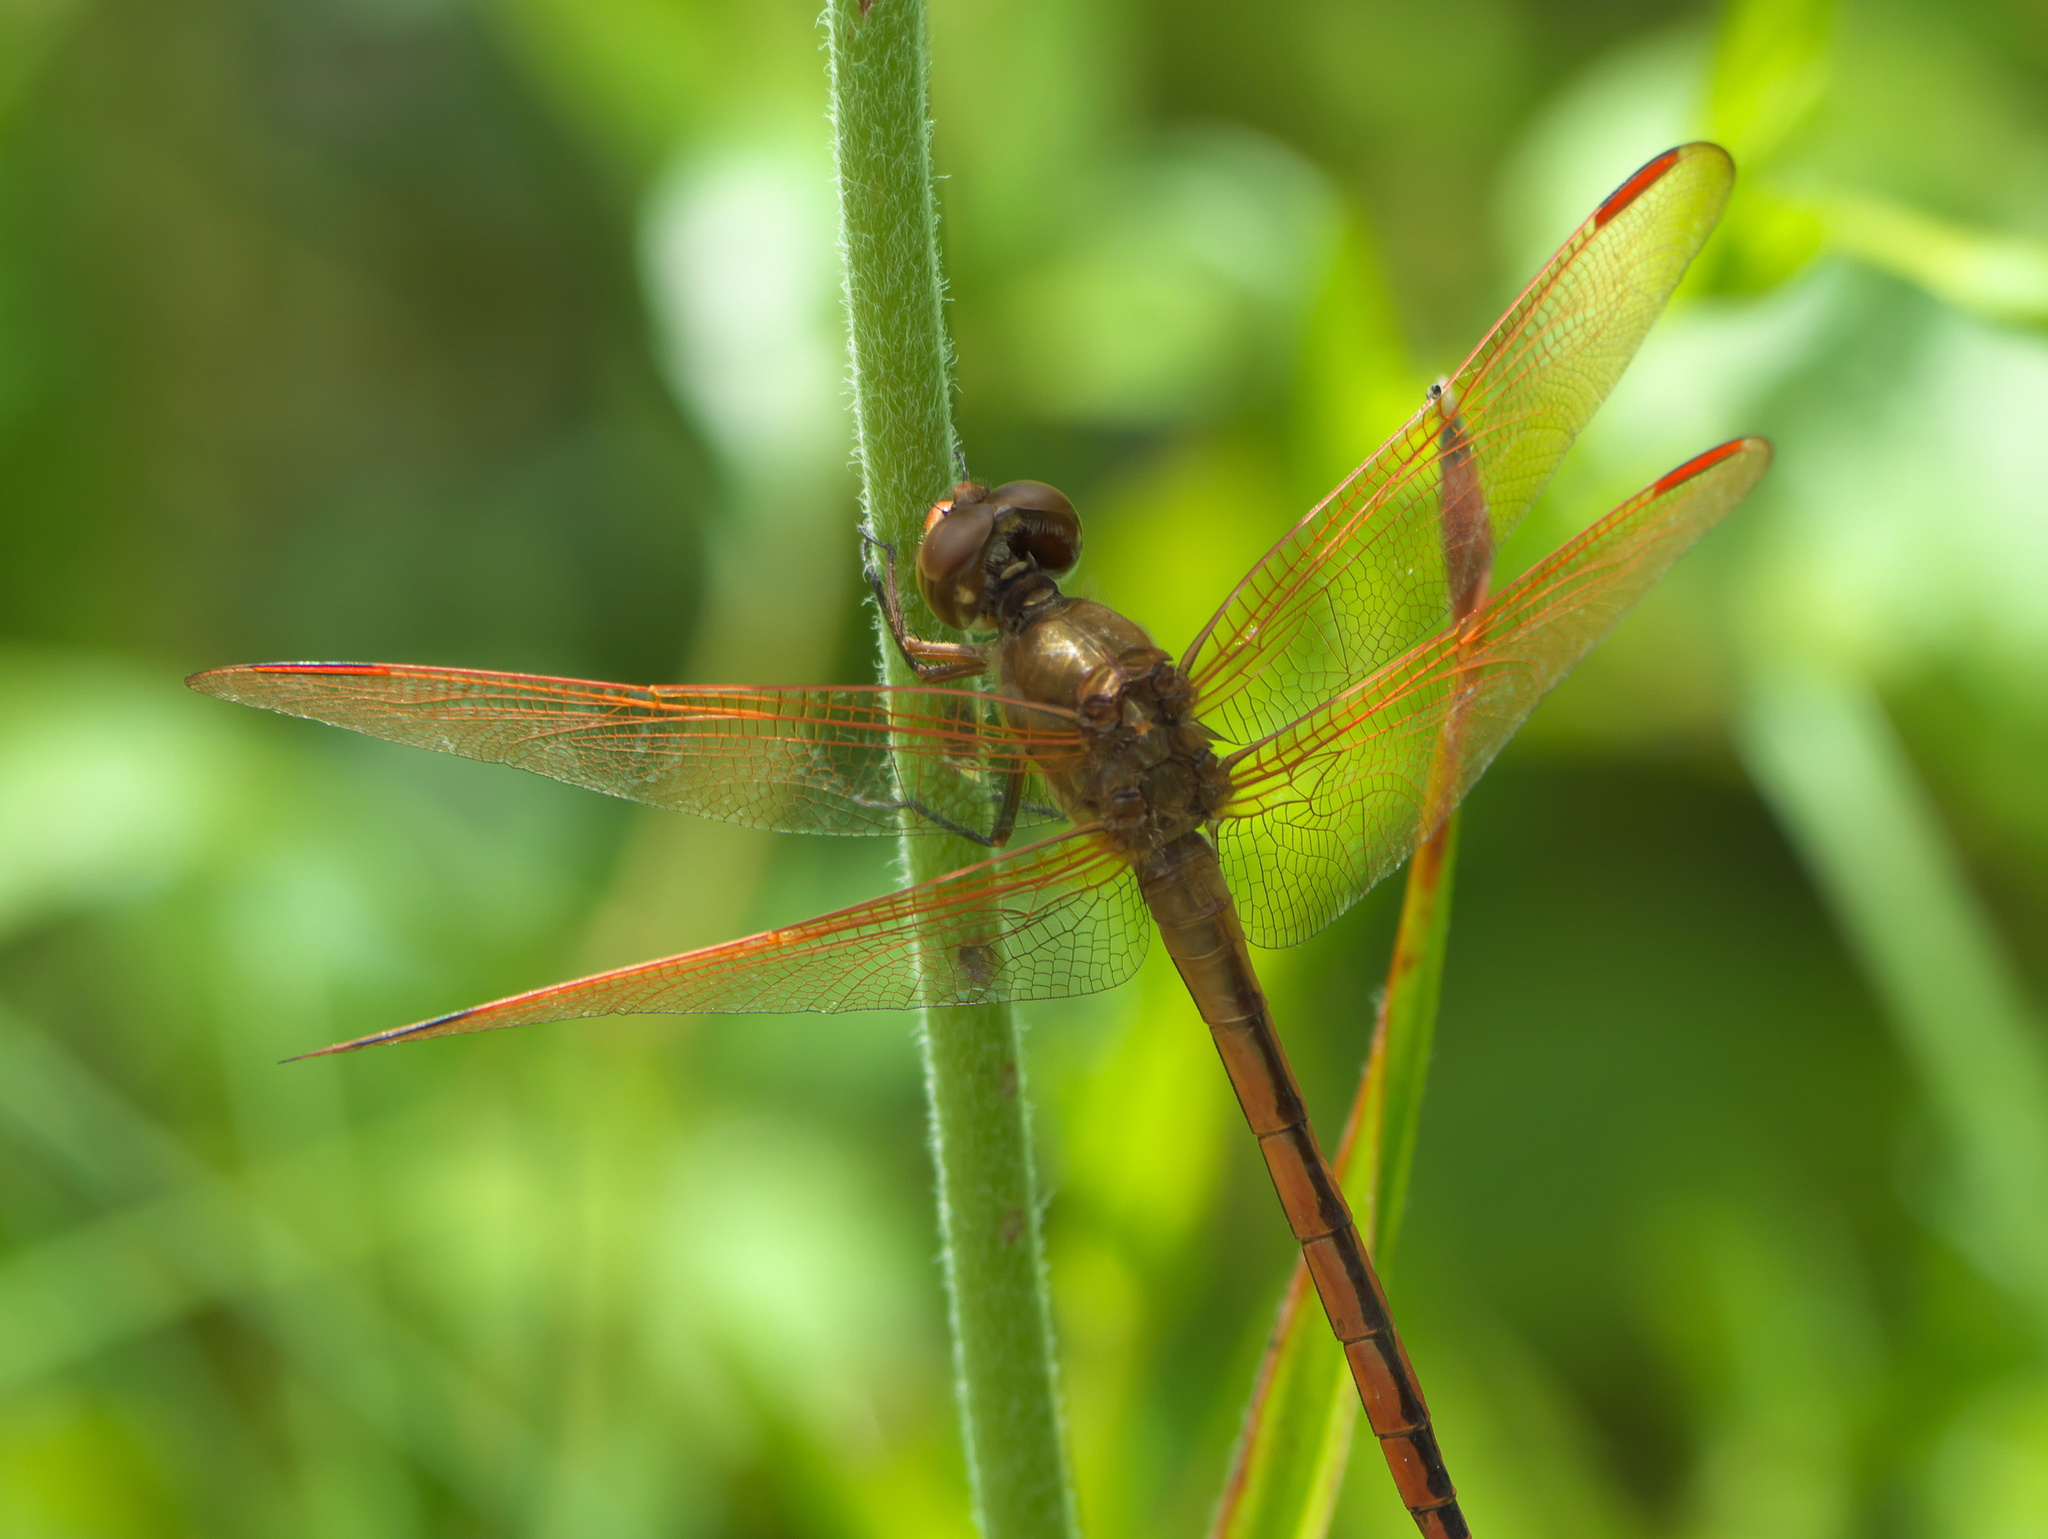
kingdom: Animalia
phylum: Arthropoda
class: Insecta
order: Odonata
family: Libellulidae
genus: Libellula
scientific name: Libellula auripennis
